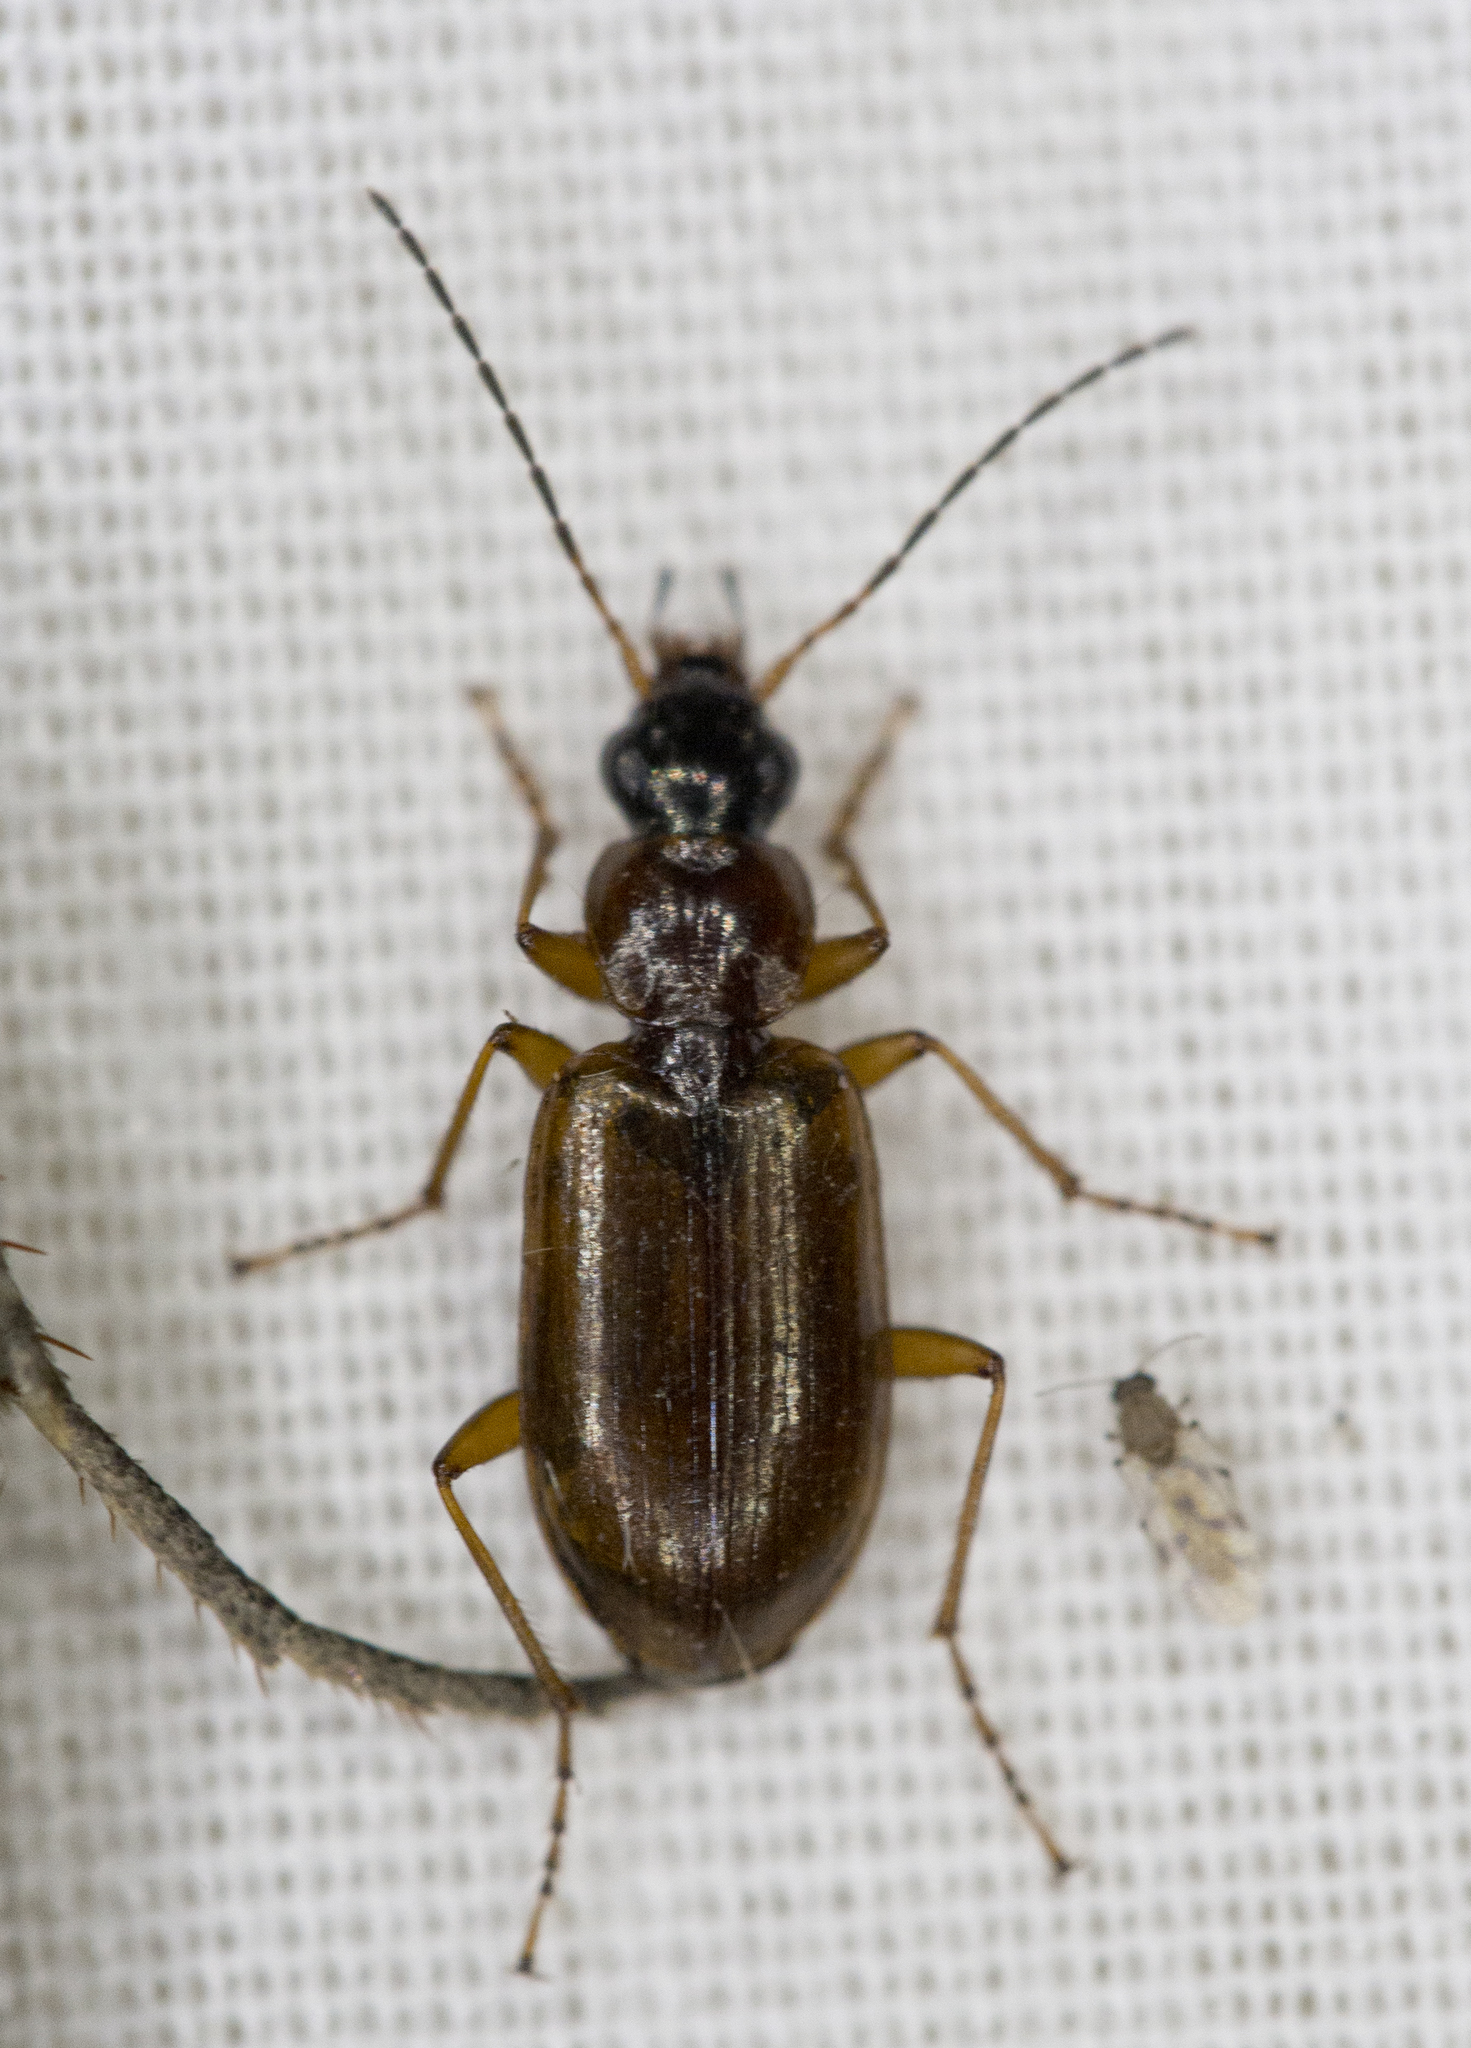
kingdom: Animalia
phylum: Arthropoda
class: Insecta
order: Coleoptera
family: Carabidae
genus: Agonum
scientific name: Agonum ferruginosum
